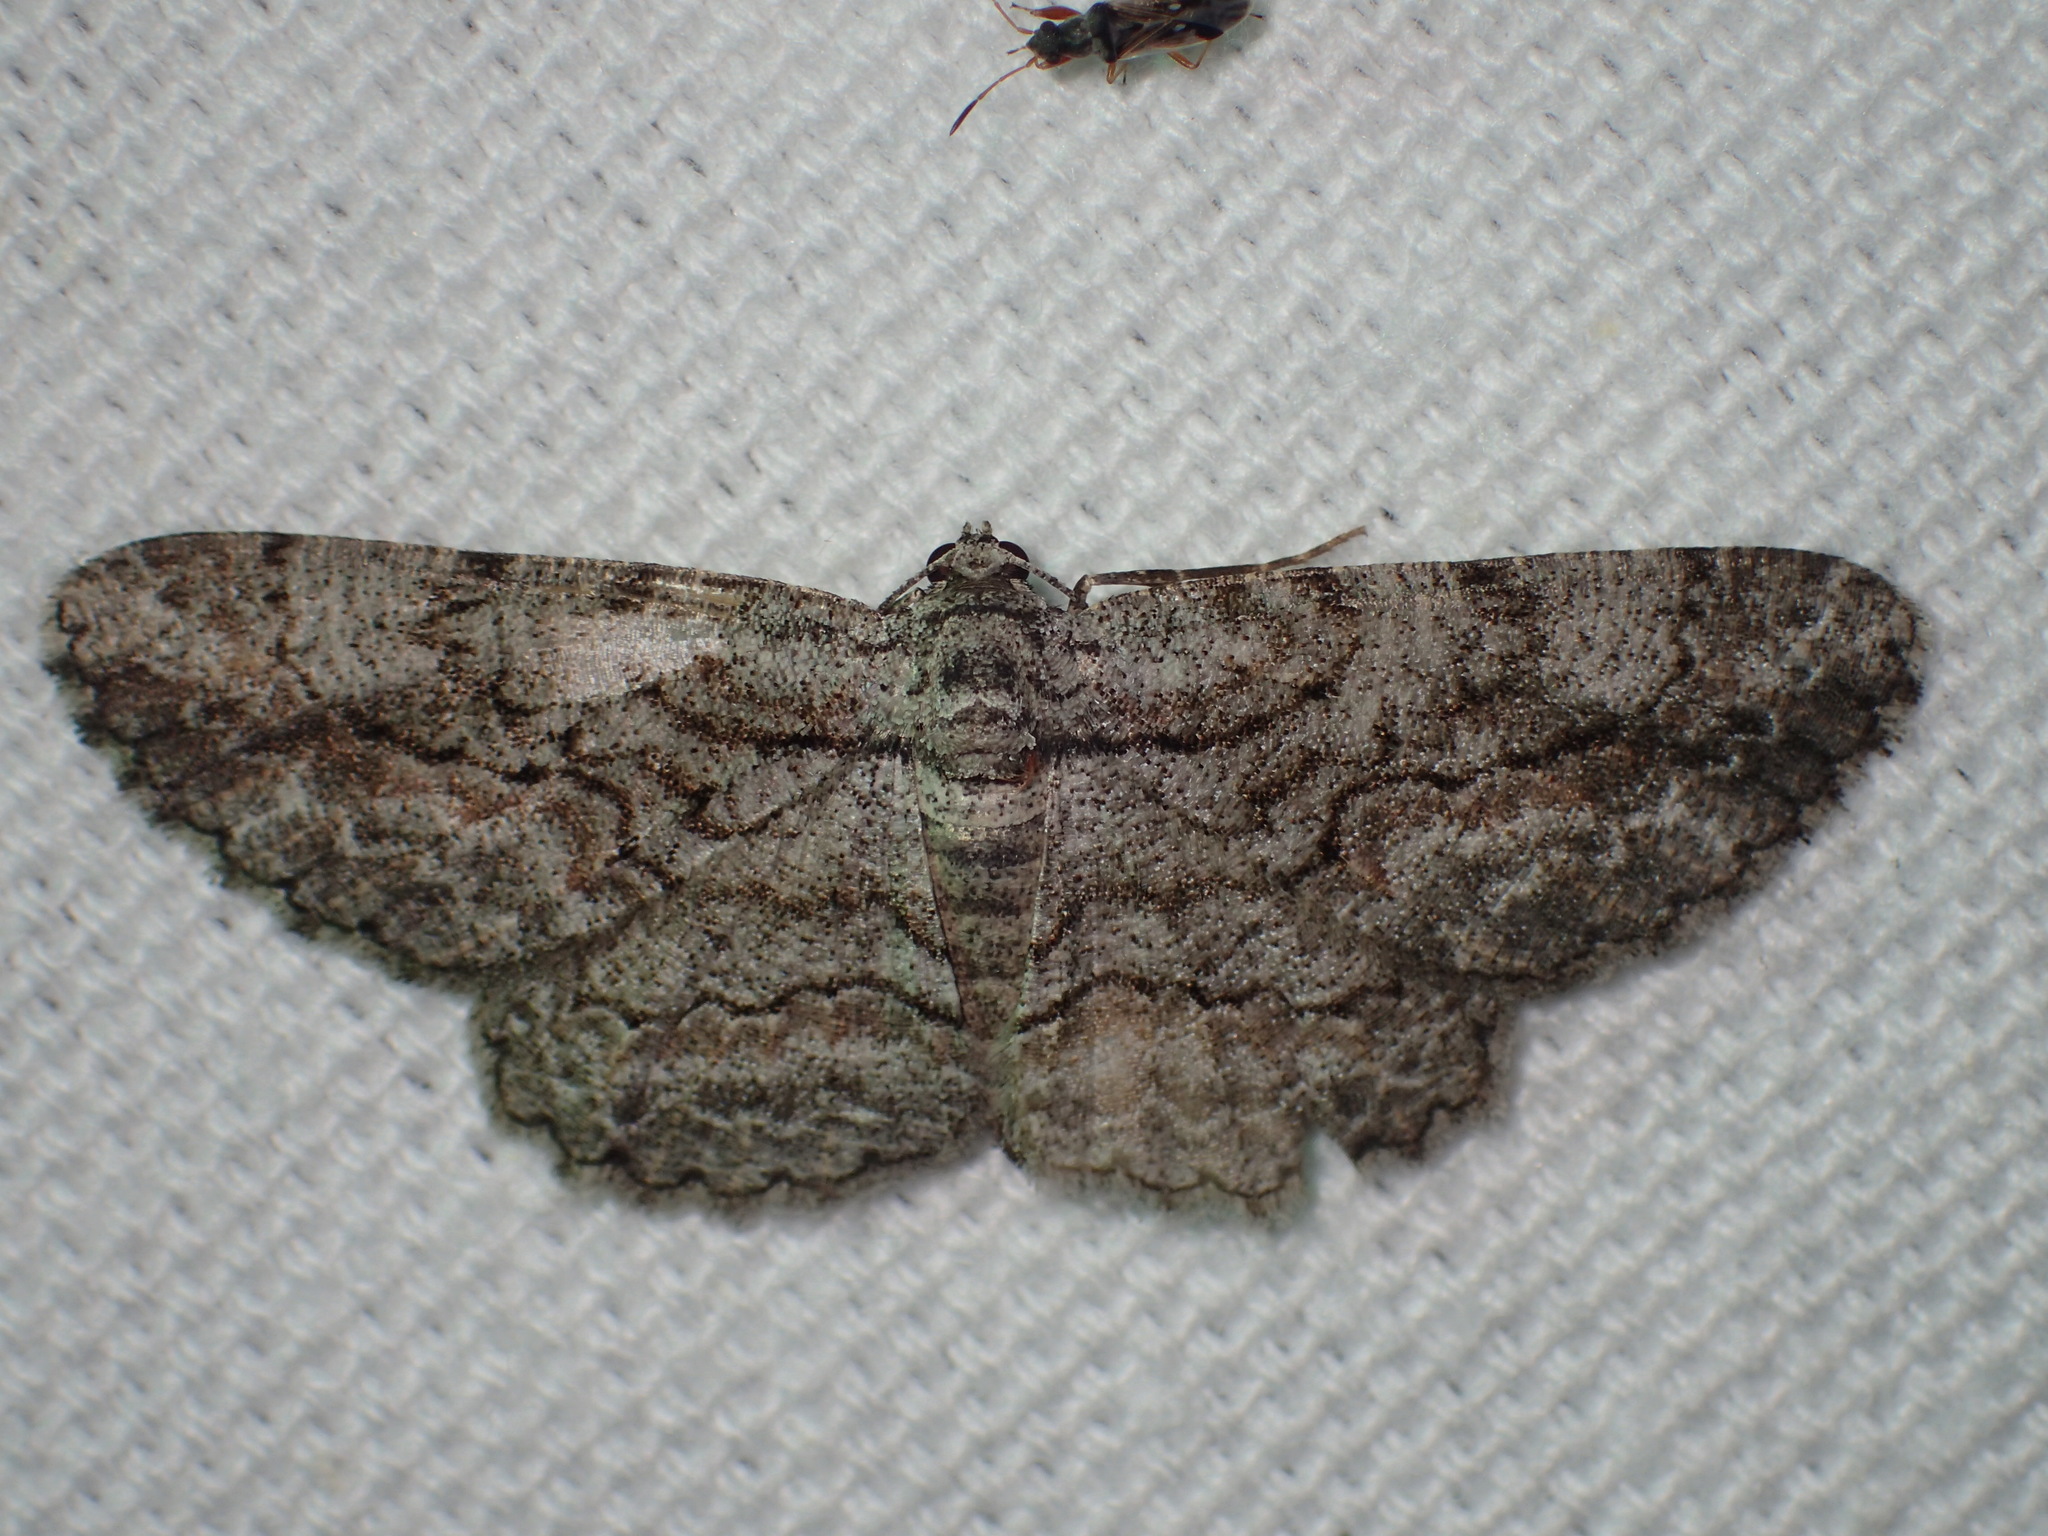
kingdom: Animalia
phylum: Arthropoda
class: Insecta
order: Lepidoptera
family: Geometridae
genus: Anavitrinella
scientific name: Anavitrinella pampinaria
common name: Common gray
